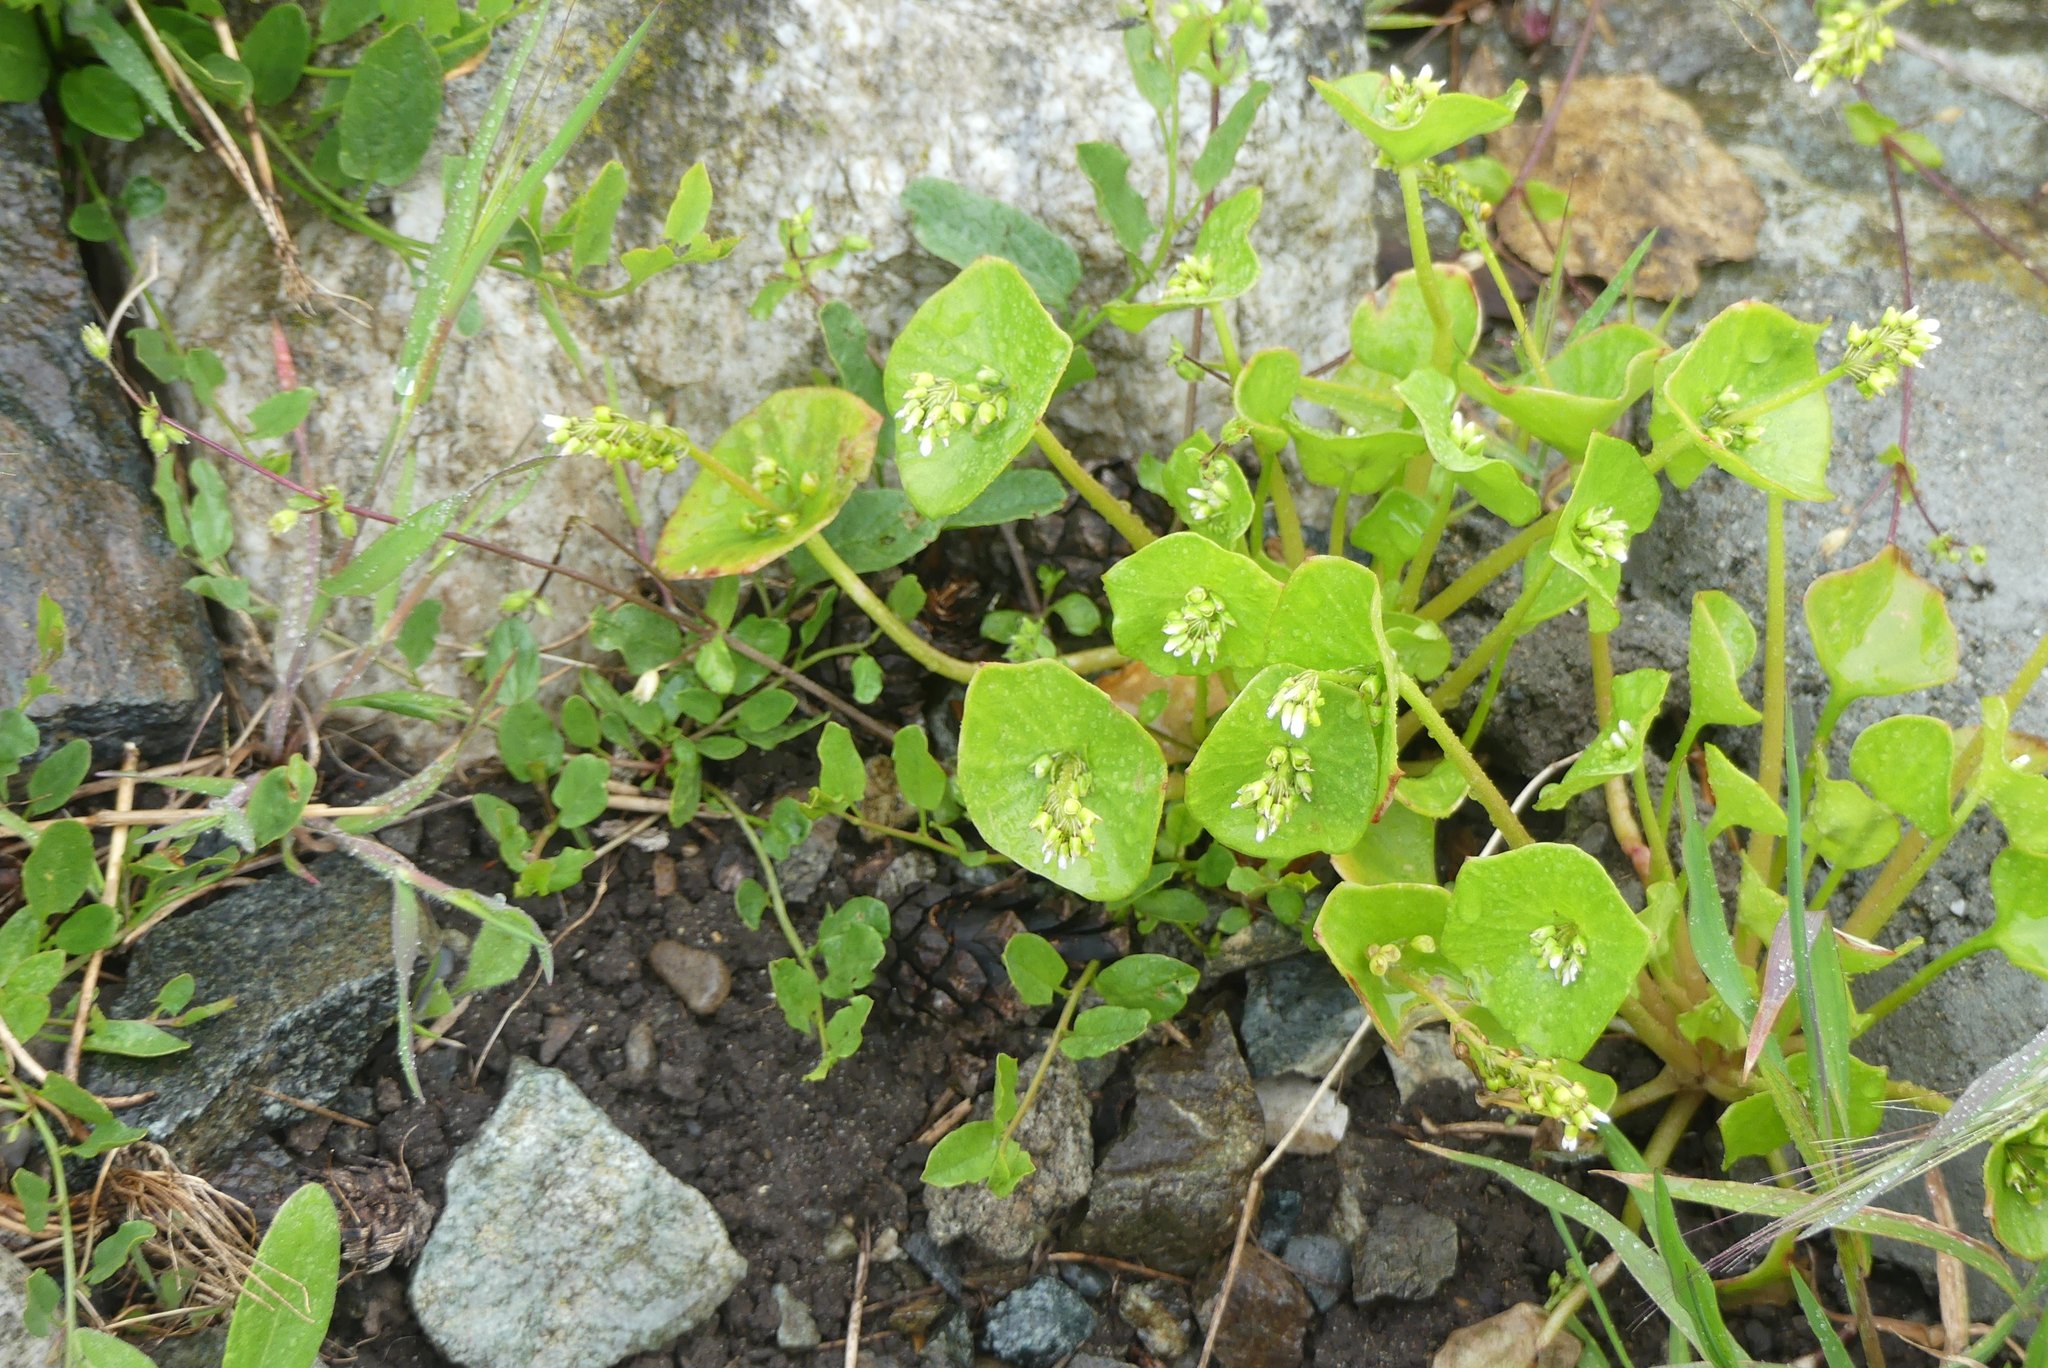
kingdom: Plantae
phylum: Tracheophyta
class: Magnoliopsida
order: Caryophyllales
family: Montiaceae
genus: Claytonia
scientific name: Claytonia perfoliata
